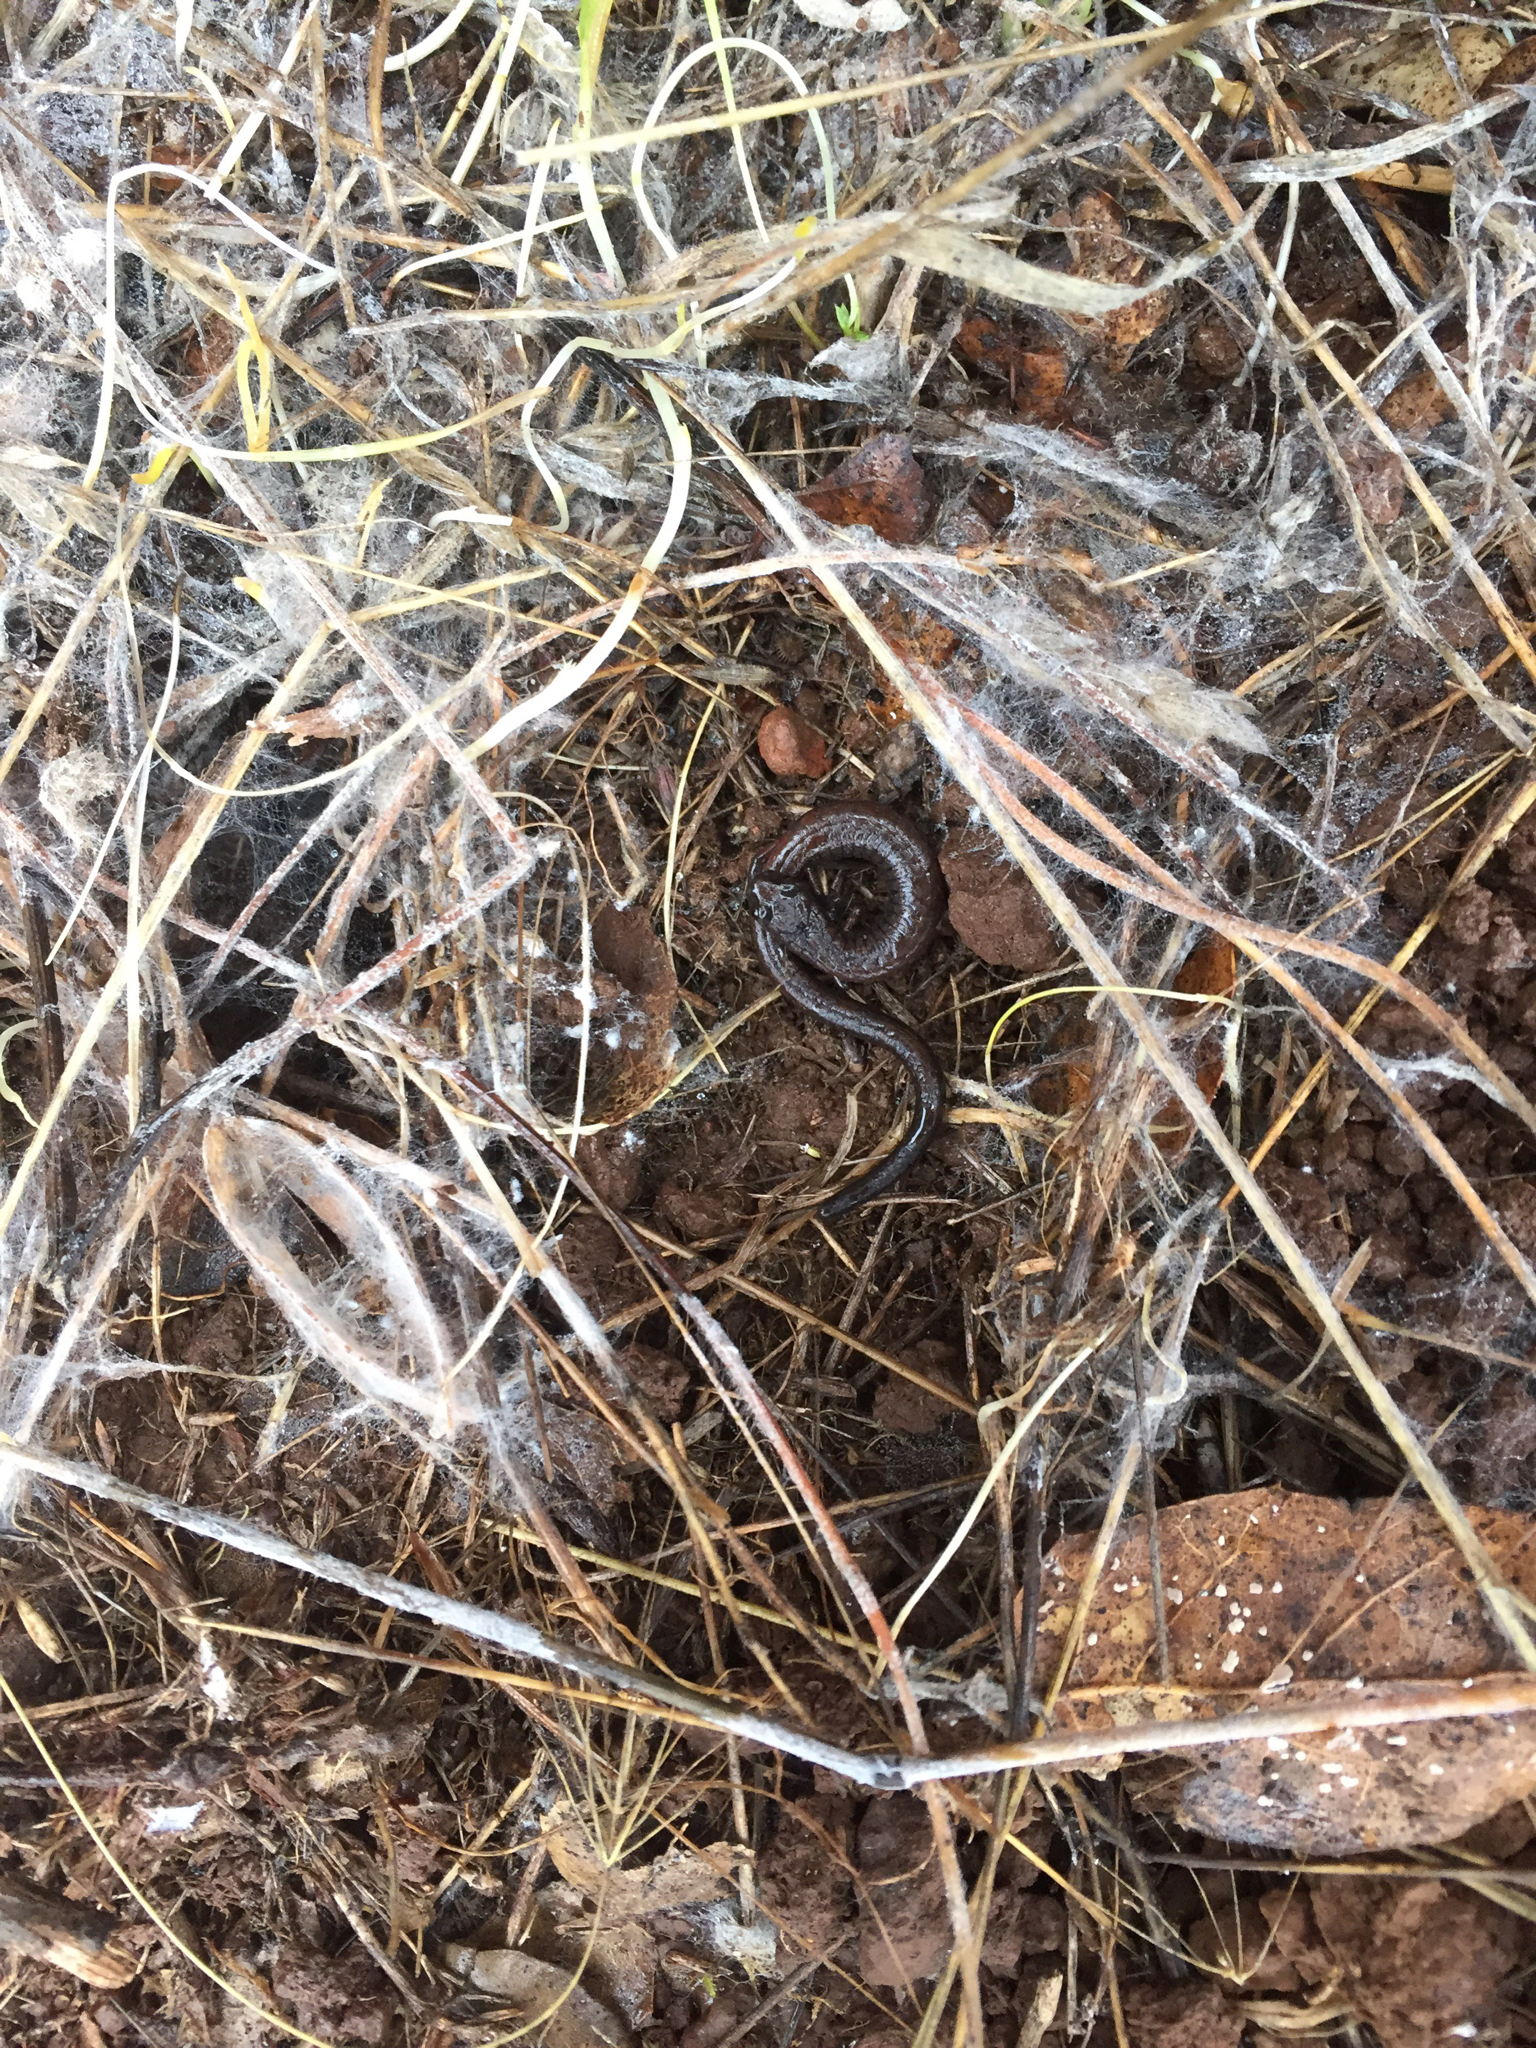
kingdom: Animalia
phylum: Chordata
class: Amphibia
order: Caudata
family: Plethodontidae
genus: Batrachoseps
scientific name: Batrachoseps attenuatus
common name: California slender salamander
